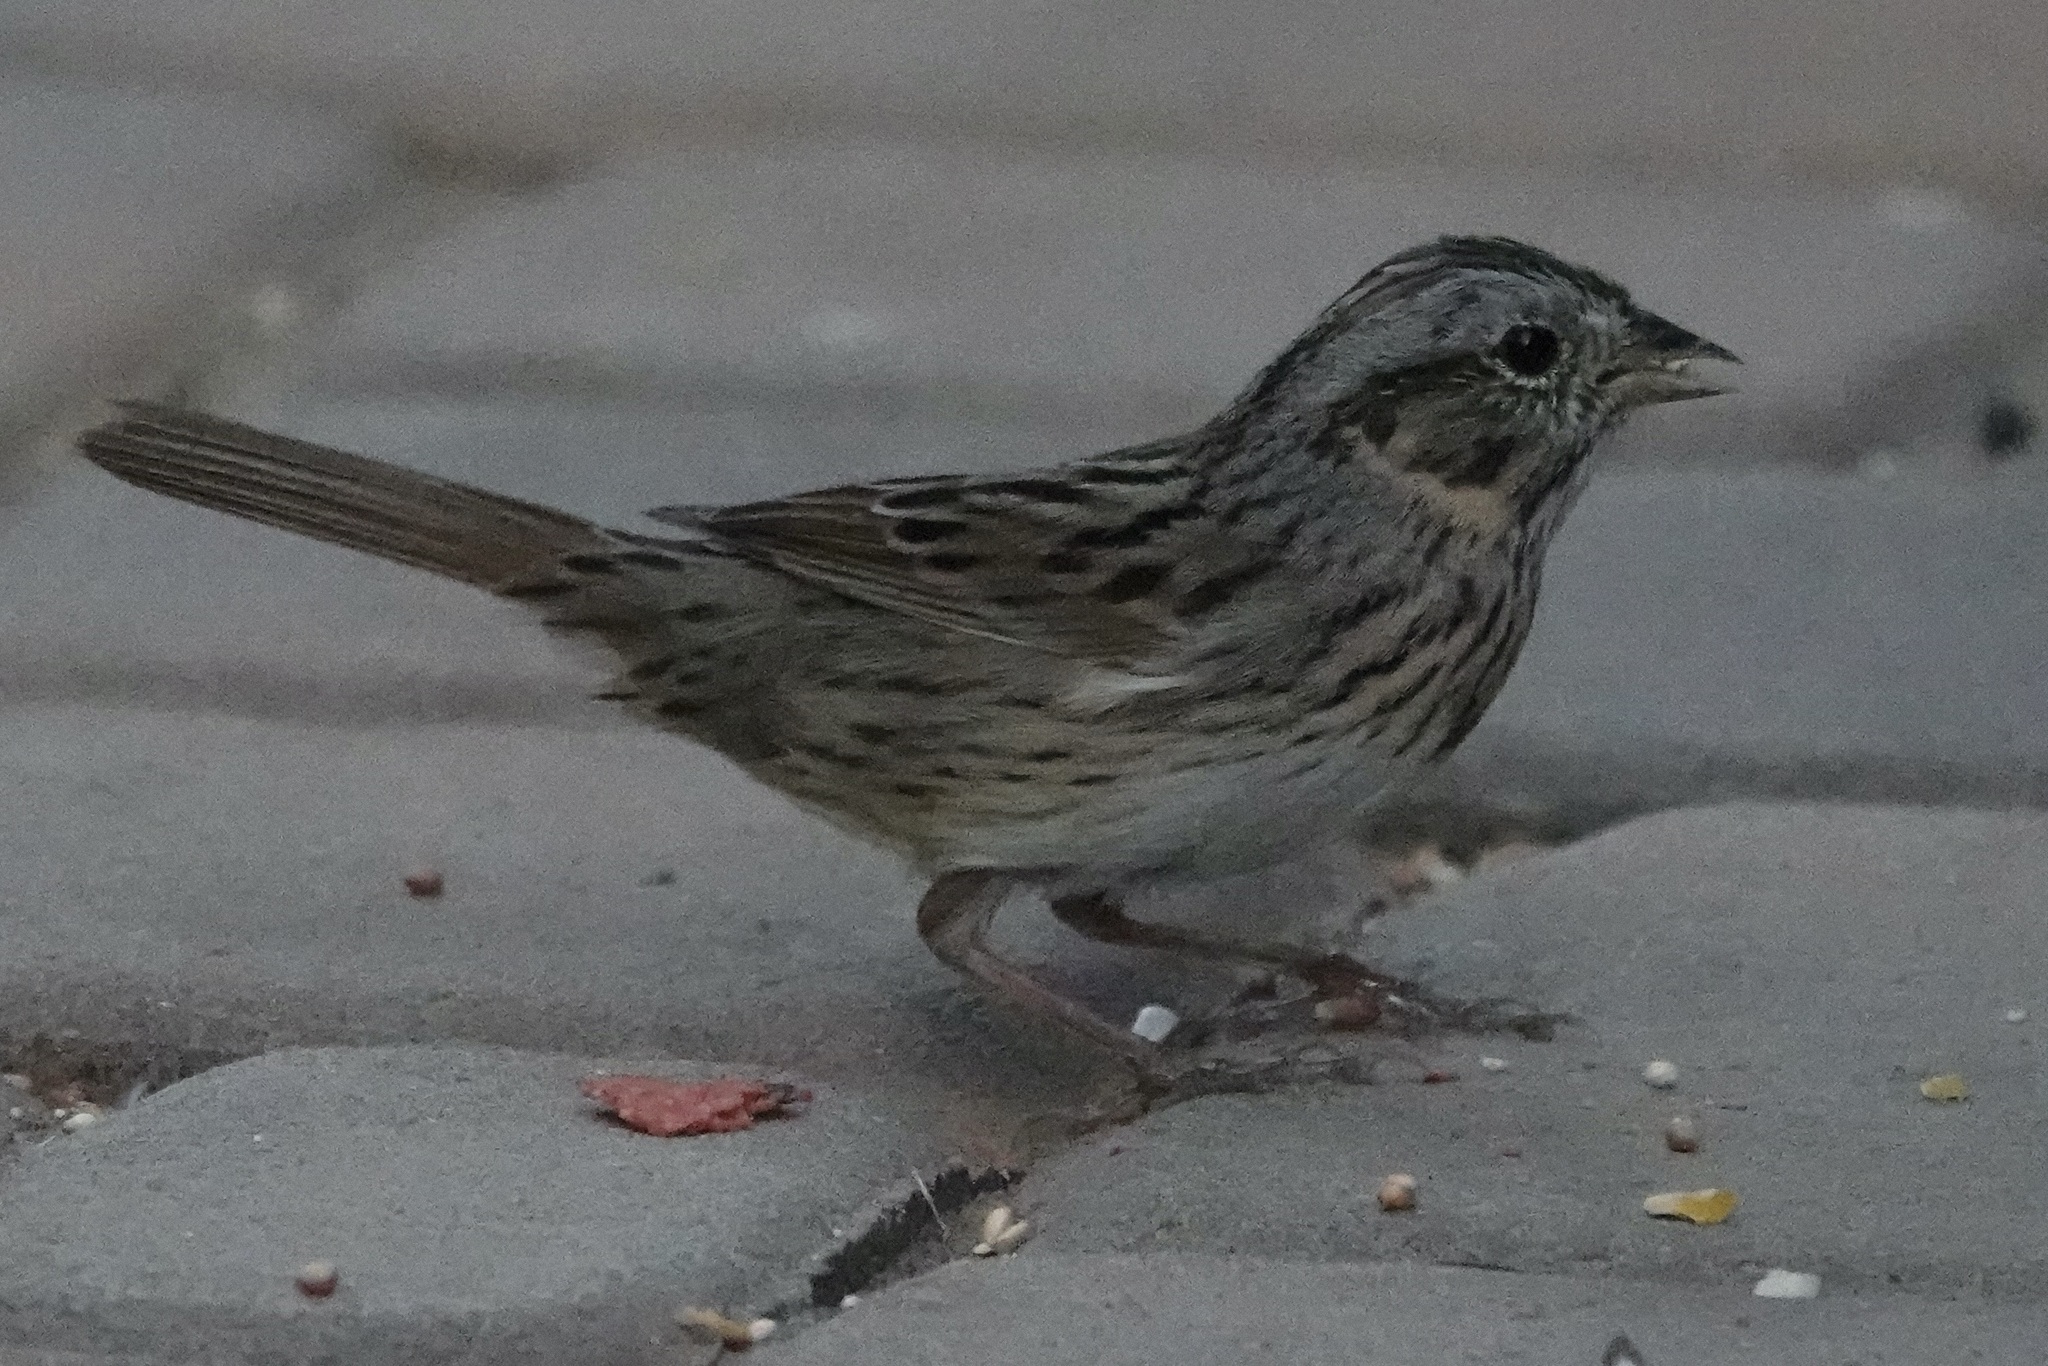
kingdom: Animalia
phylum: Chordata
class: Aves
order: Passeriformes
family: Passerellidae
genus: Melospiza
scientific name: Melospiza lincolnii
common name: Lincoln's sparrow
